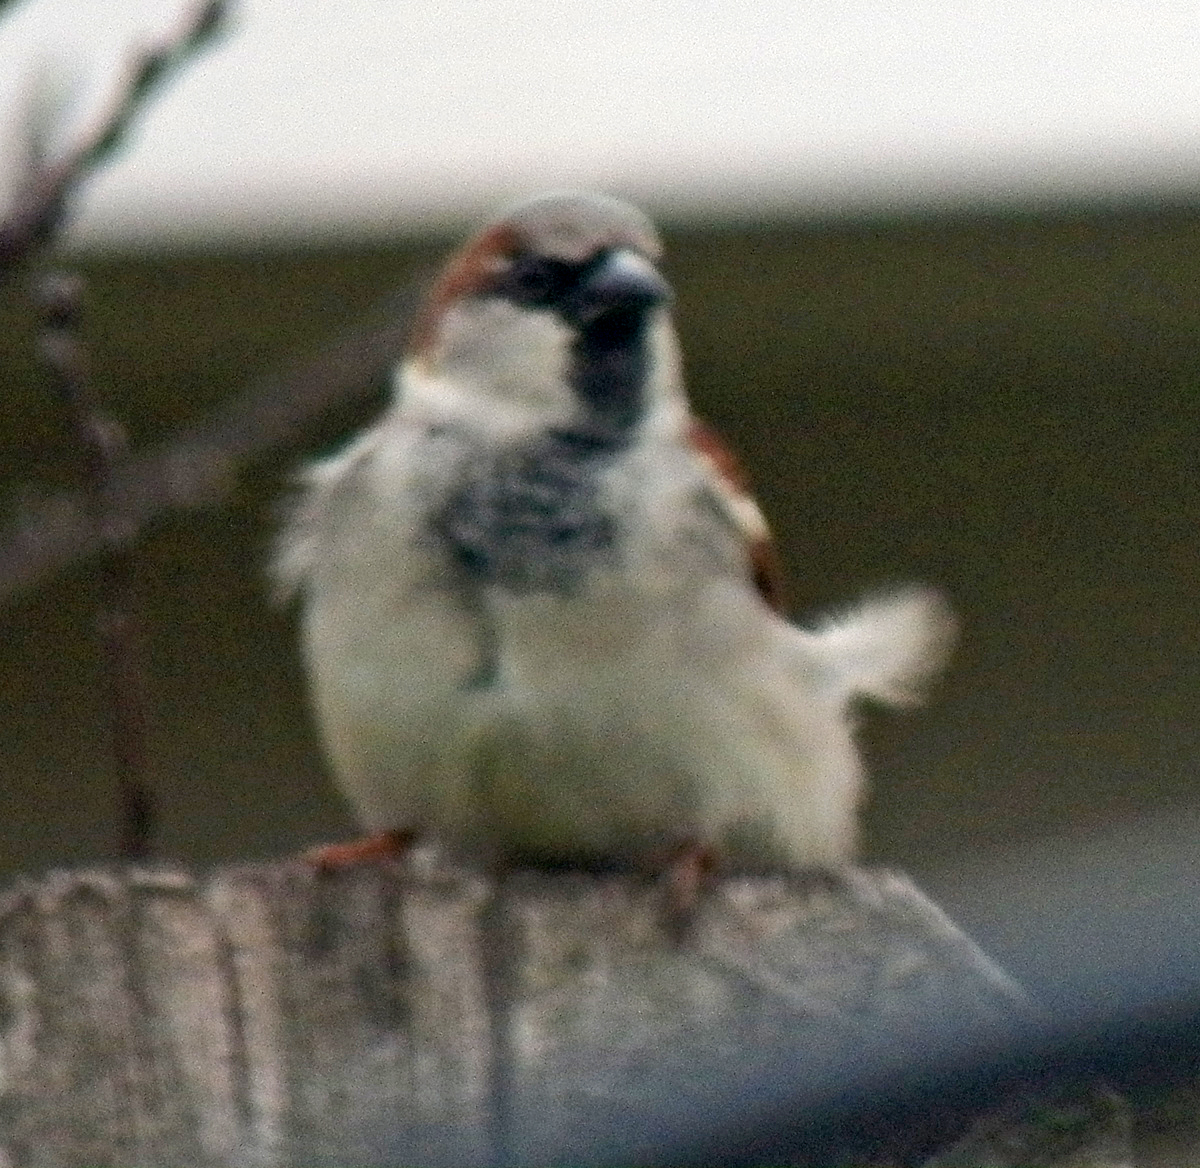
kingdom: Animalia
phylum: Chordata
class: Aves
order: Passeriformes
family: Passeridae
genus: Passer
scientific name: Passer domesticus
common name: House sparrow
